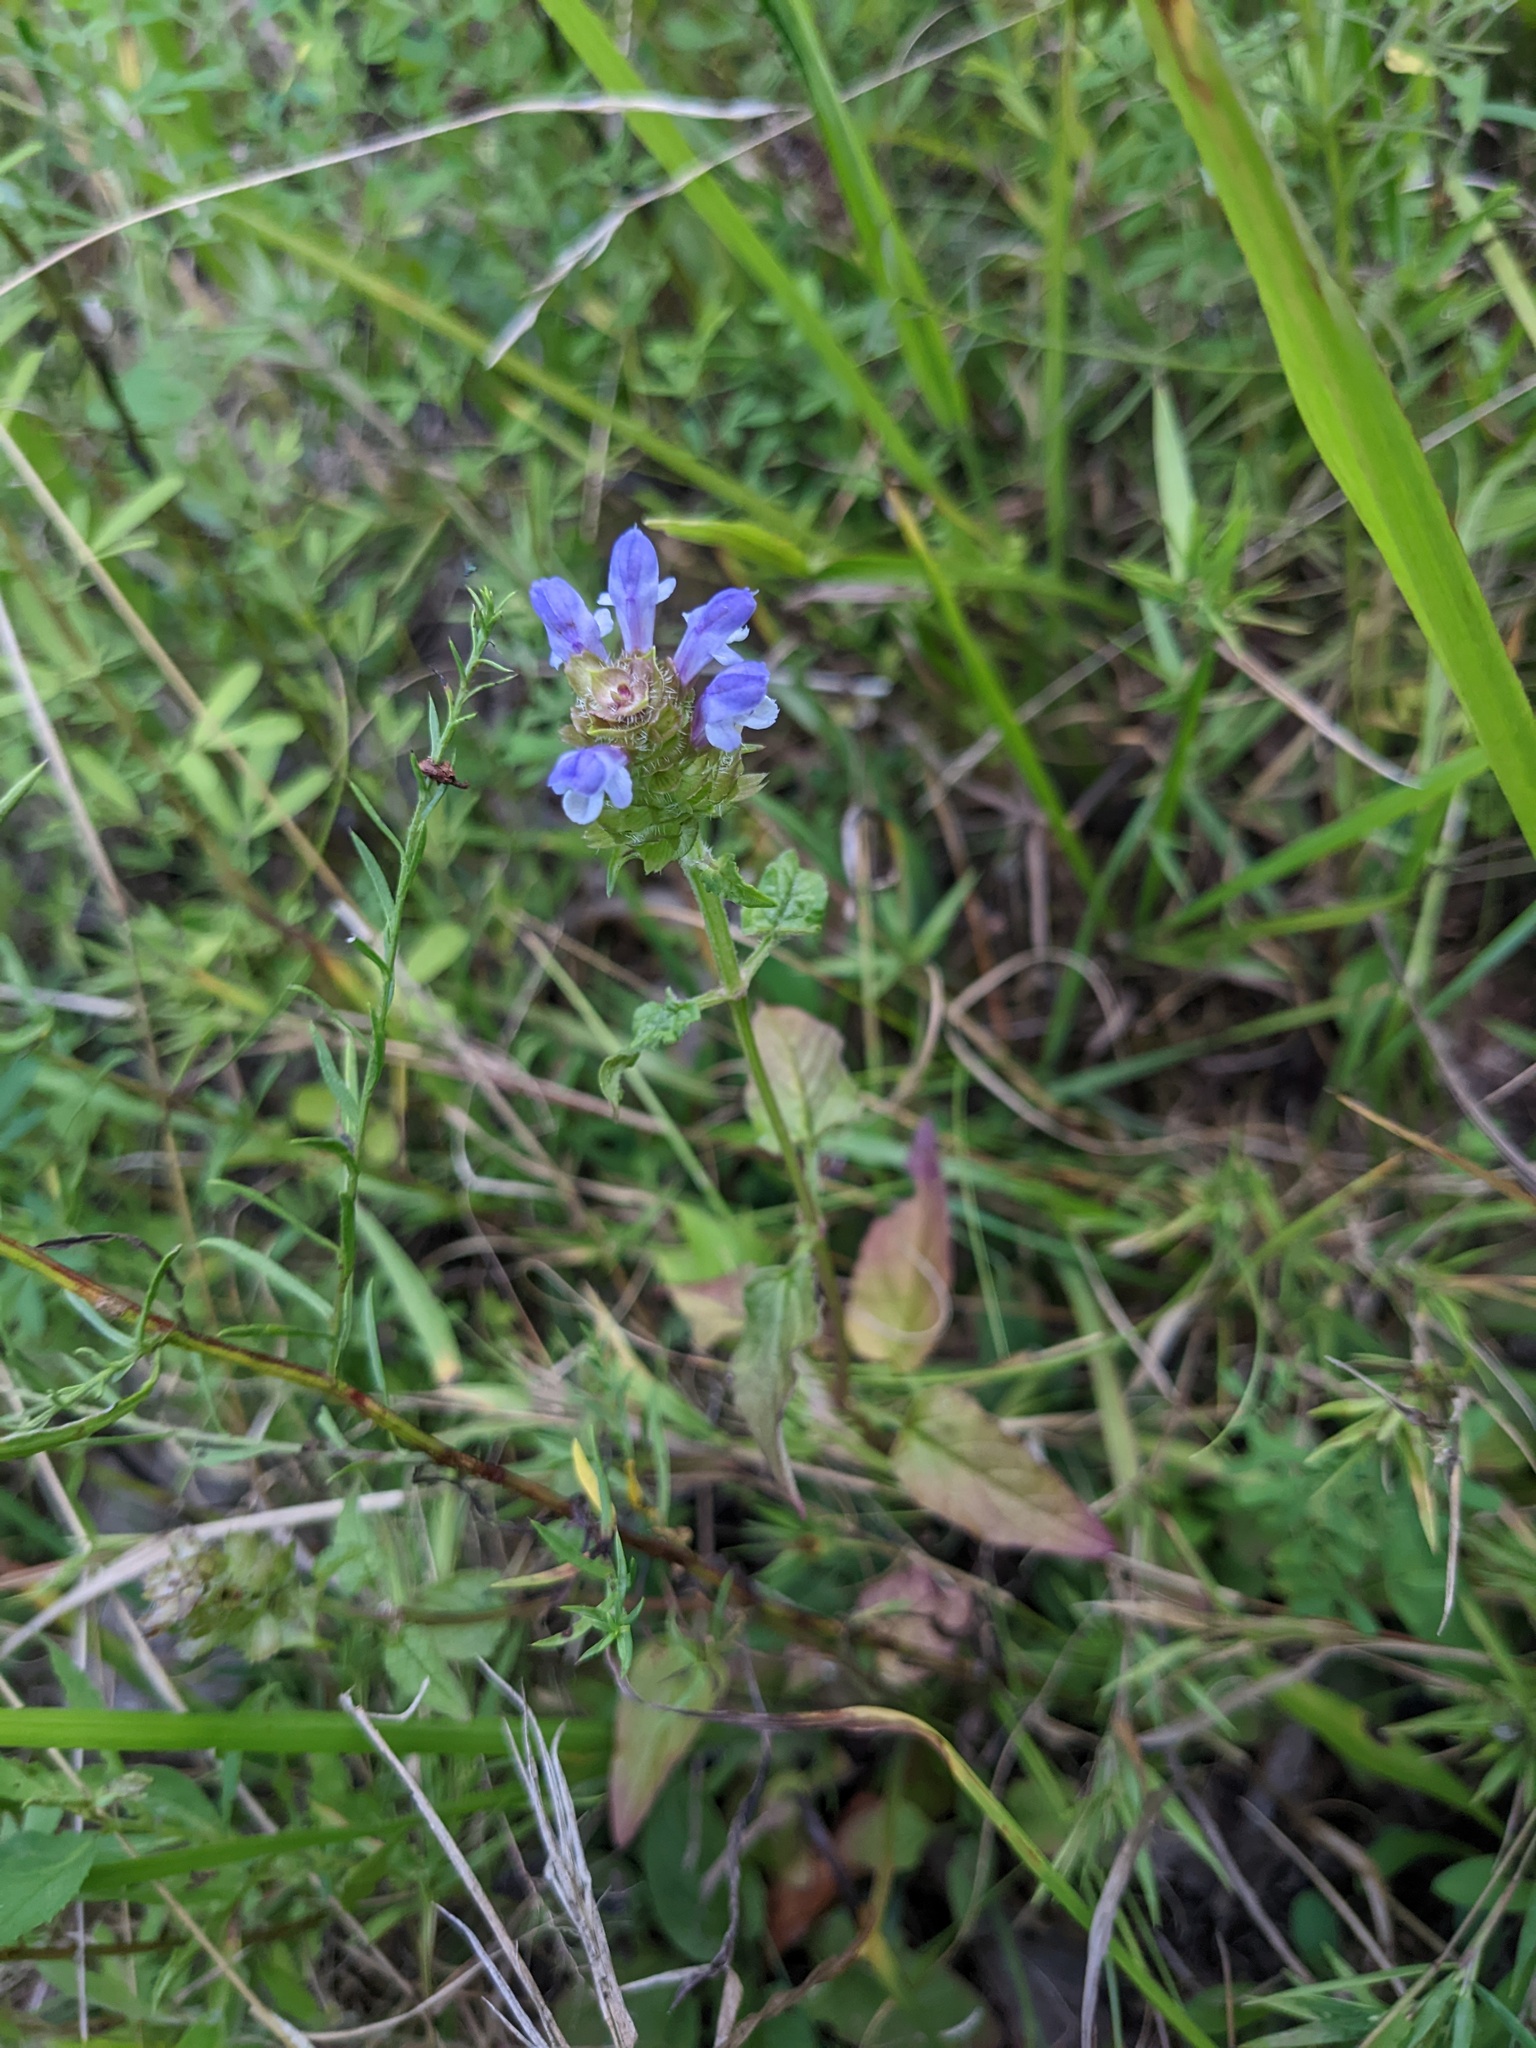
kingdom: Plantae
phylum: Tracheophyta
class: Magnoliopsida
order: Lamiales
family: Lamiaceae
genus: Prunella
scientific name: Prunella vulgaris
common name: Heal-all
